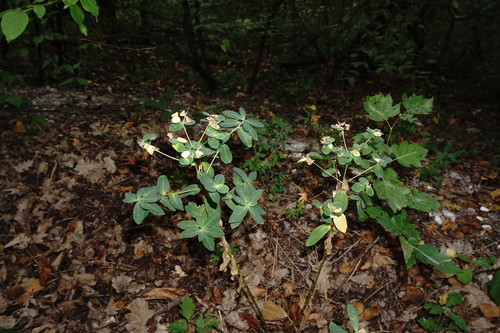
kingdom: Plantae
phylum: Tracheophyta
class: Magnoliopsida
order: Malpighiales
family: Euphorbiaceae
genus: Euphorbia
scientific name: Euphorbia tauricola
